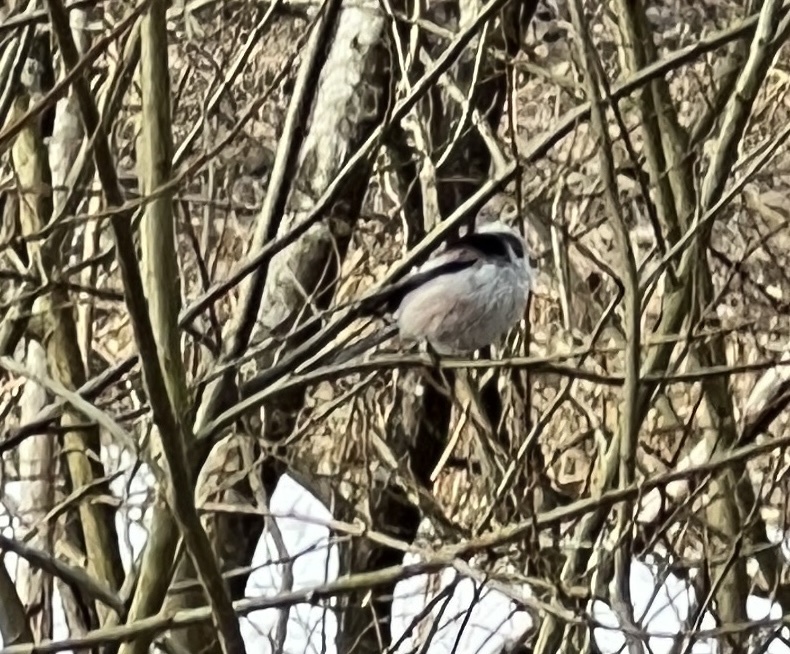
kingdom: Animalia
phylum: Chordata
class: Aves
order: Passeriformes
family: Aegithalidae
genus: Aegithalos
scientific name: Aegithalos caudatus
